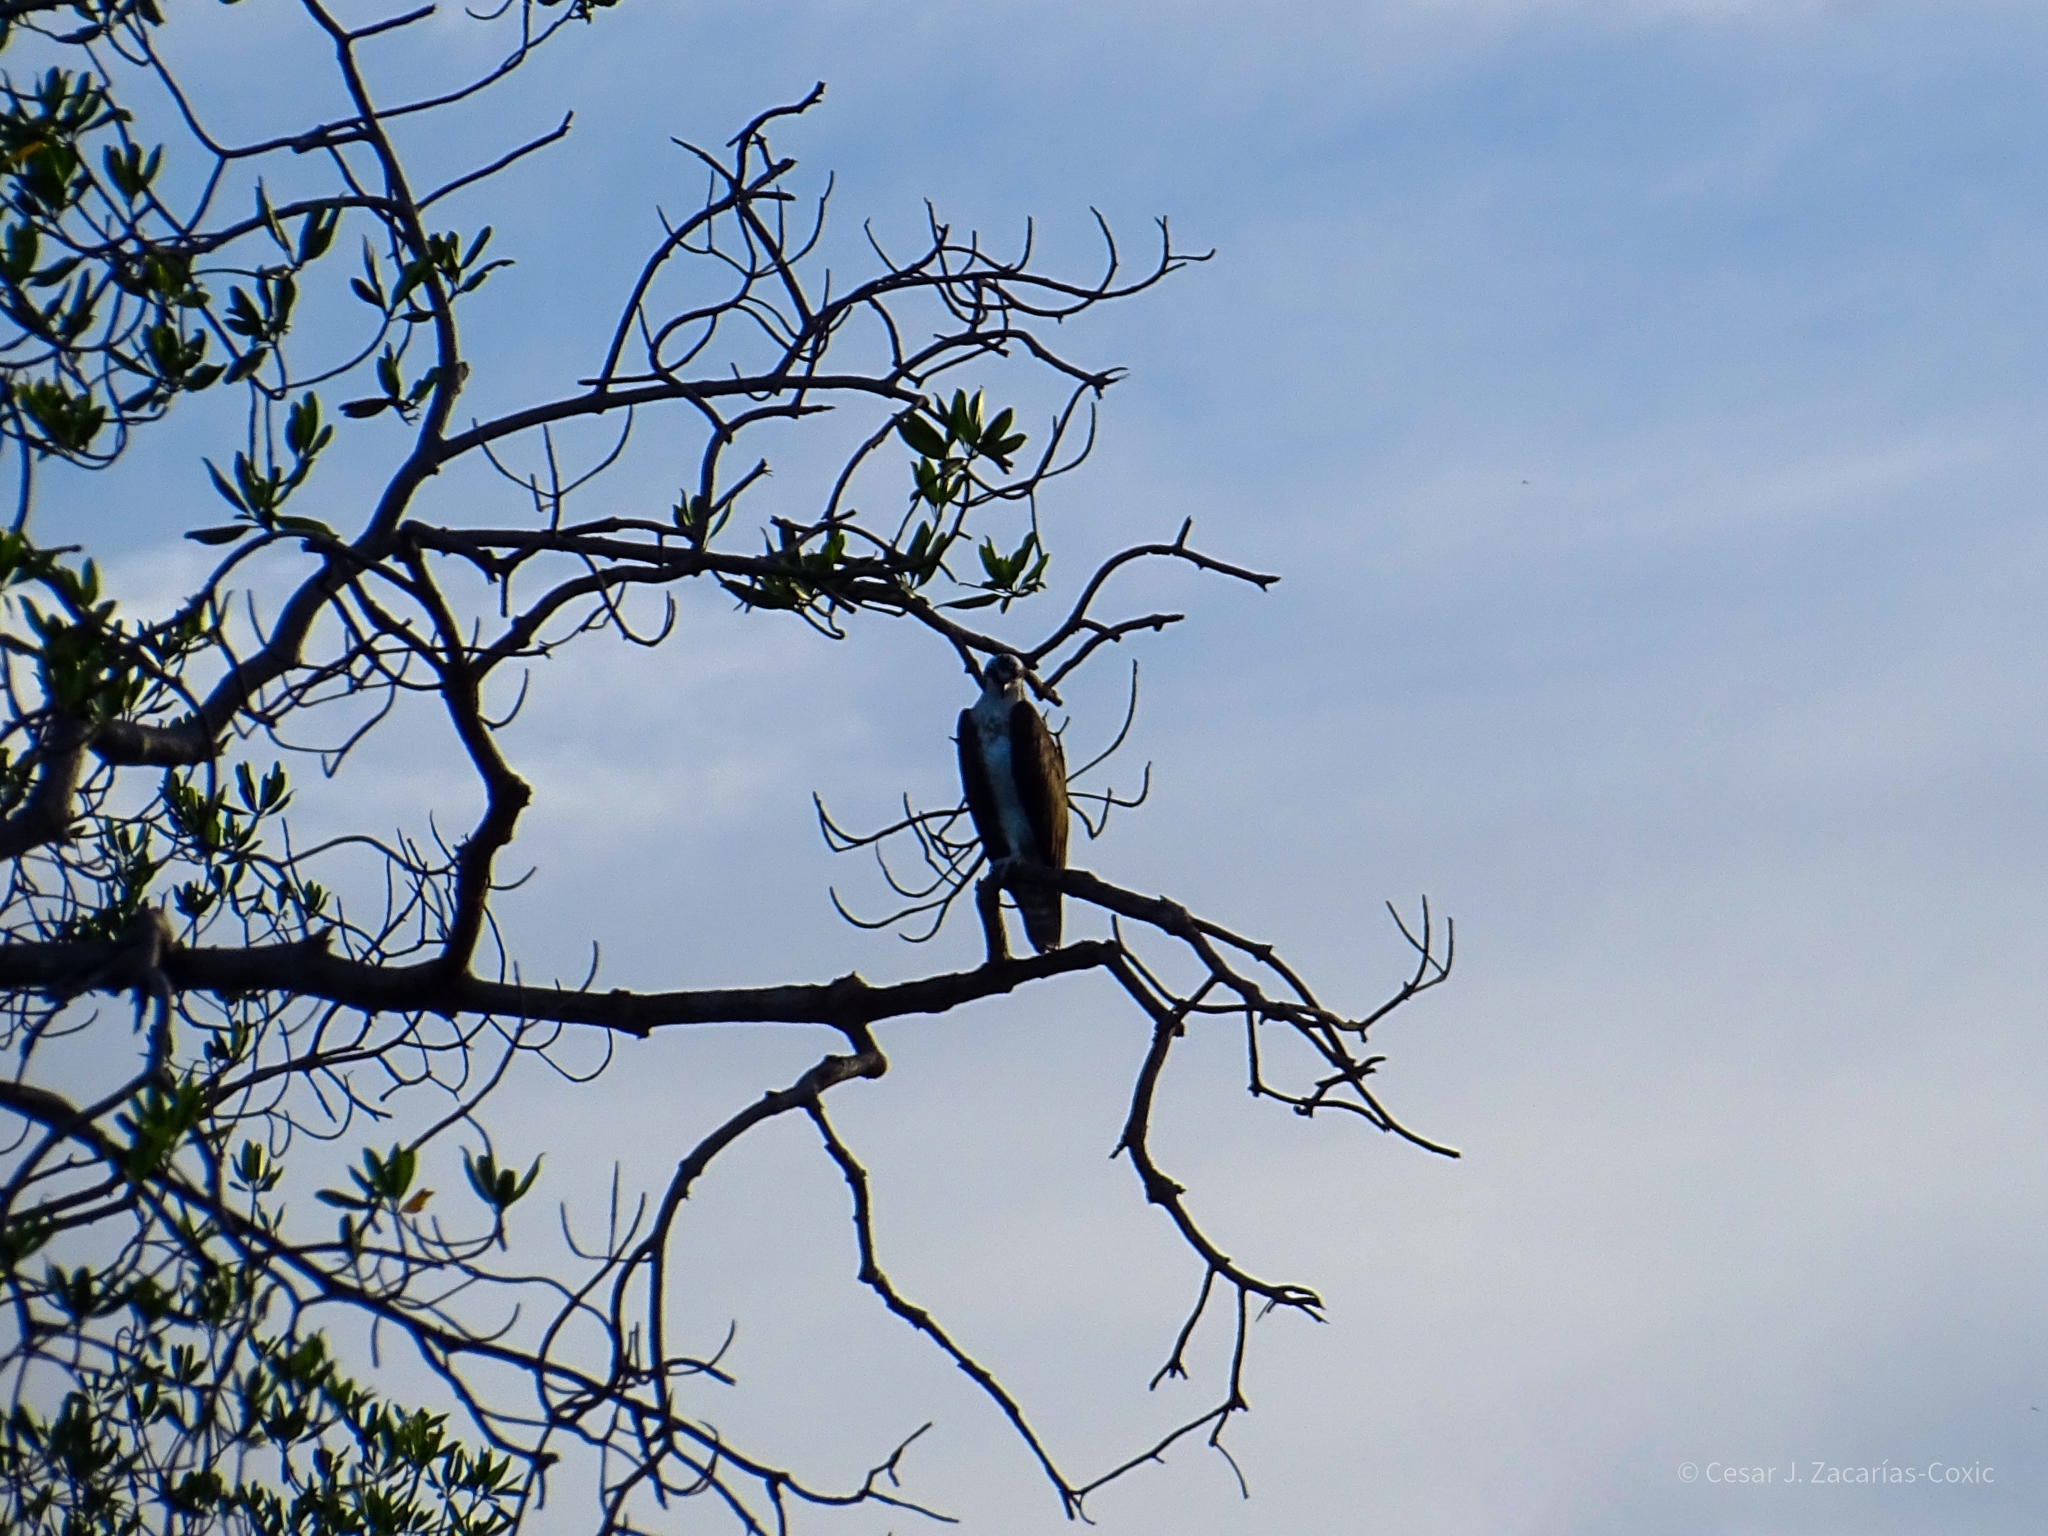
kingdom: Animalia
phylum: Chordata
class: Aves
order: Accipitriformes
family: Pandionidae
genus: Pandion
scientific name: Pandion haliaetus
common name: Osprey
